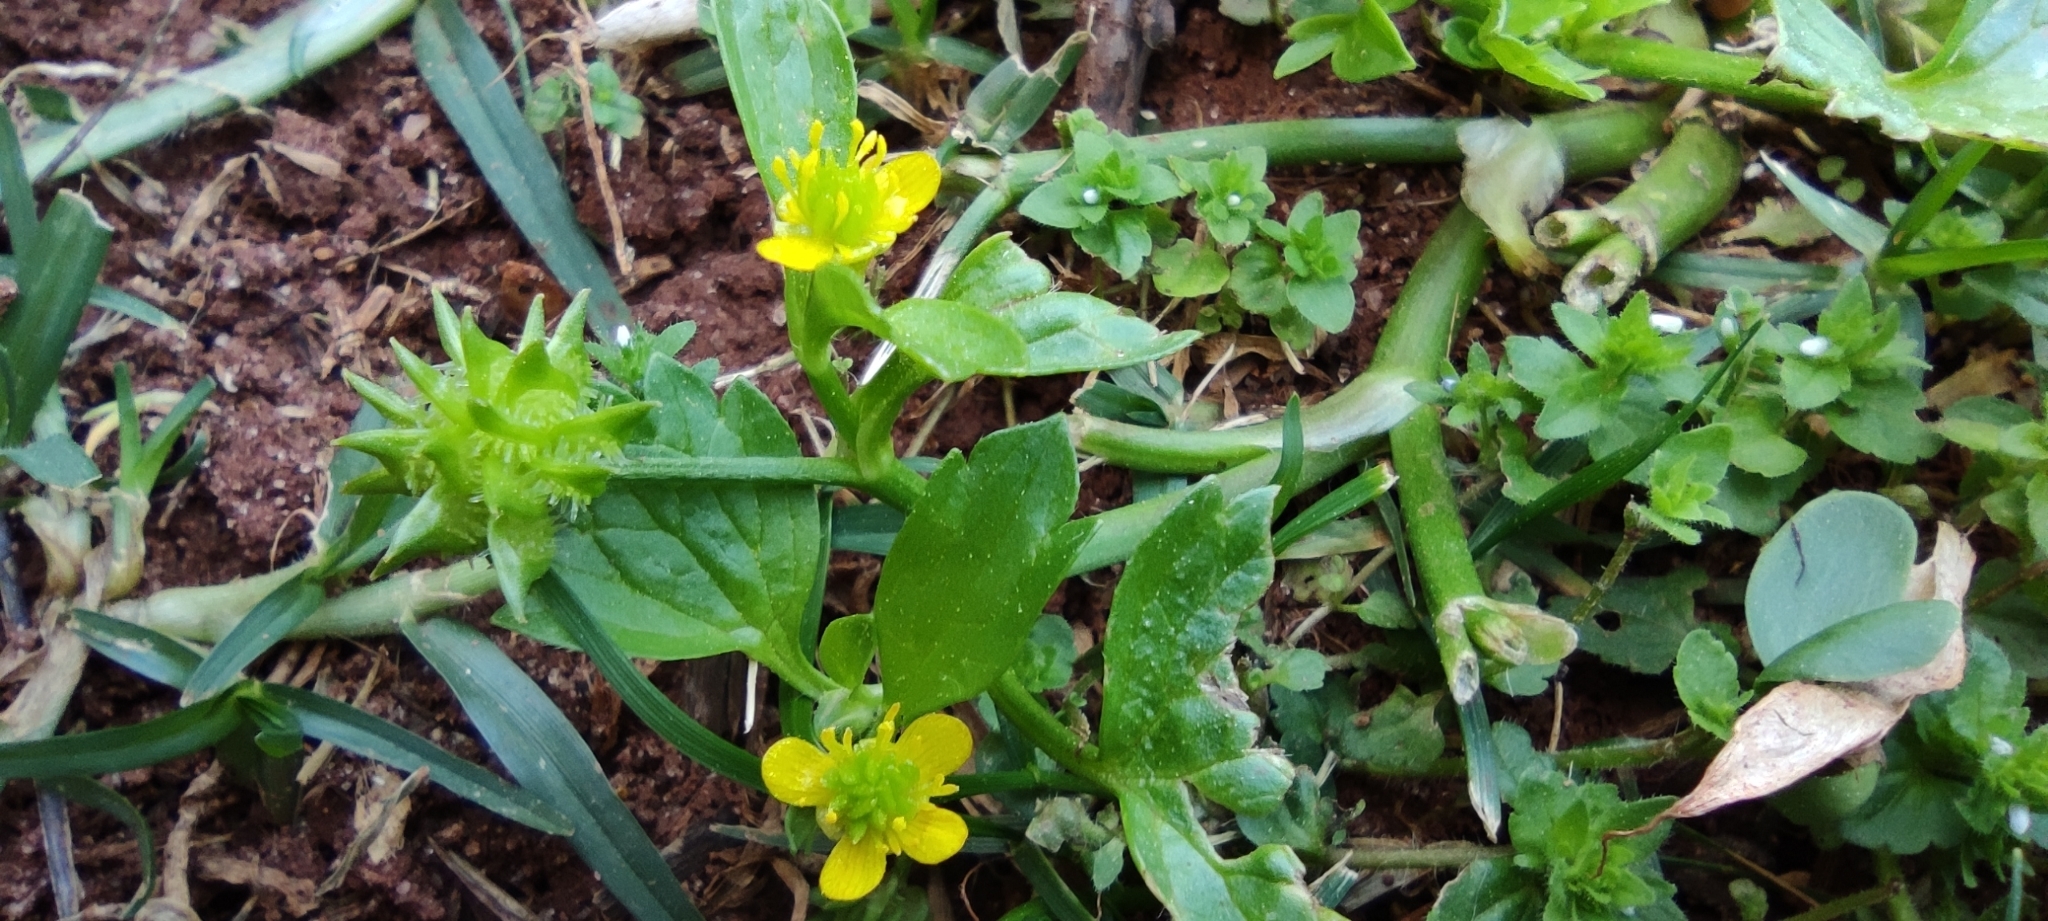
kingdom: Plantae
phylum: Tracheophyta
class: Magnoliopsida
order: Ranunculales
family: Ranunculaceae
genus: Ranunculus
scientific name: Ranunculus muricatus
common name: Rough-fruited buttercup
